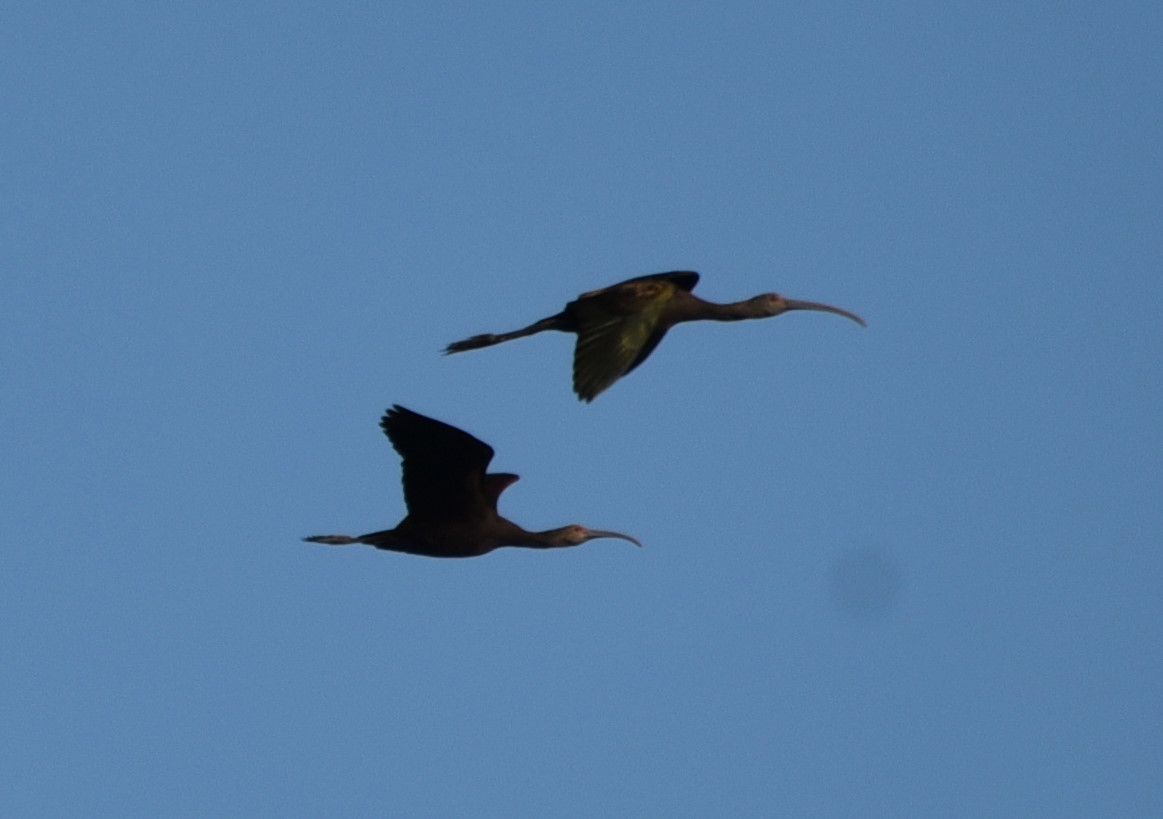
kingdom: Animalia
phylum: Chordata
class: Aves
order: Pelecaniformes
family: Threskiornithidae
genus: Plegadis
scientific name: Plegadis chihi
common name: White-faced ibis
